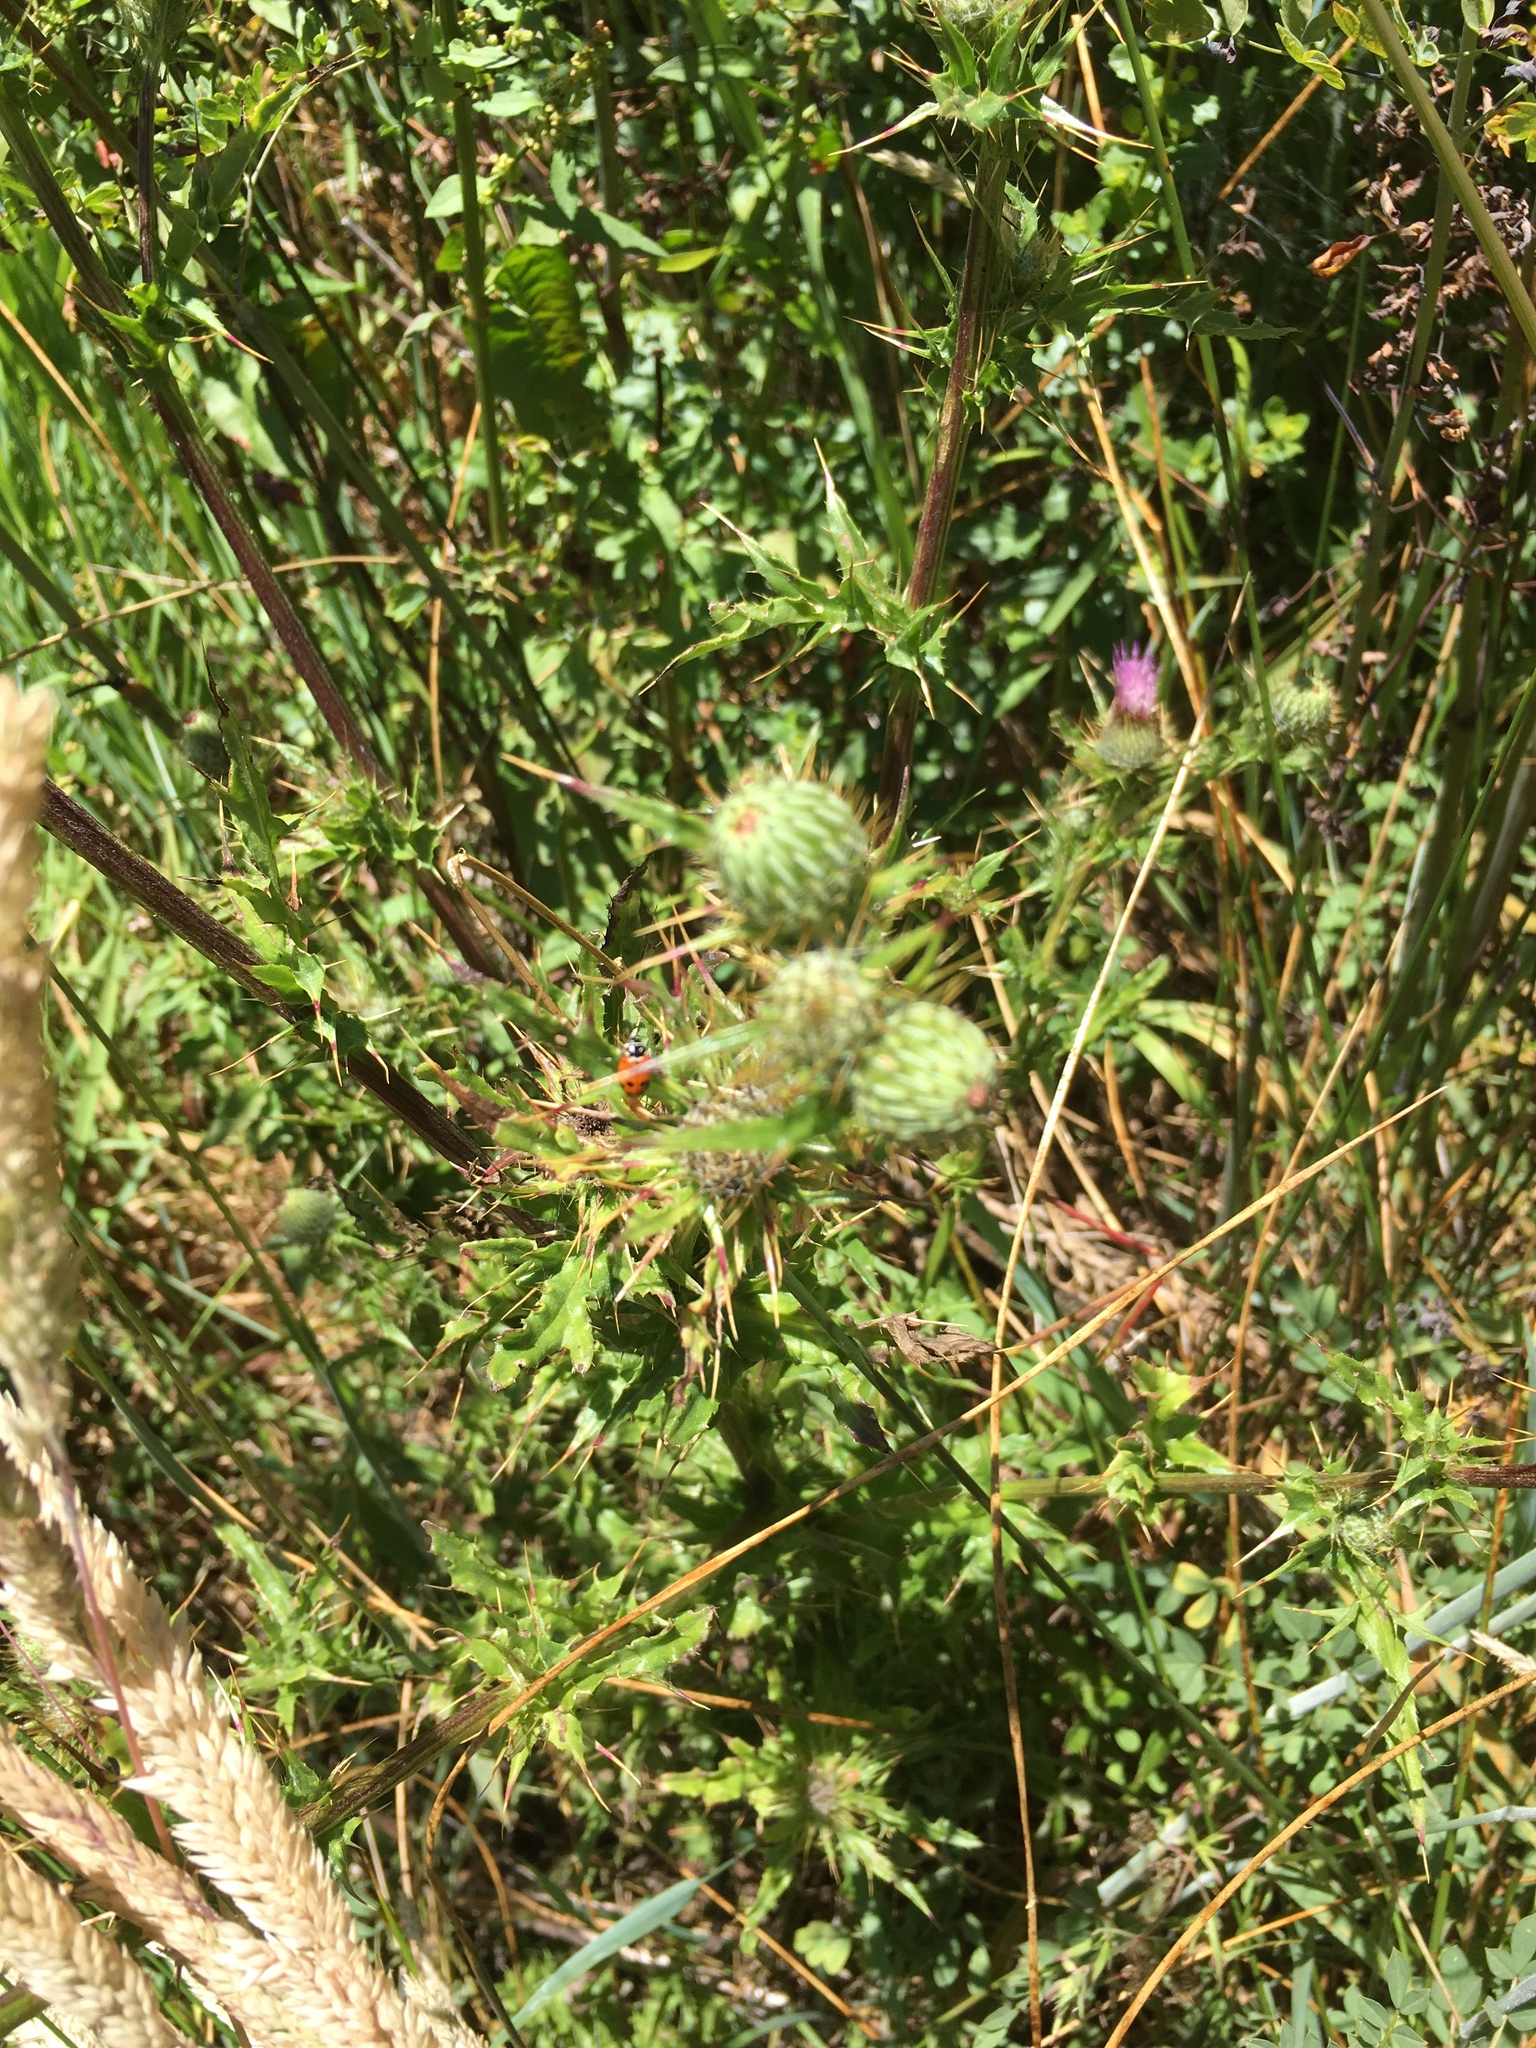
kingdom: Plantae
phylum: Tracheophyta
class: Magnoliopsida
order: Asterales
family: Asteraceae
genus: Cirsium
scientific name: Cirsium hydrophilum
